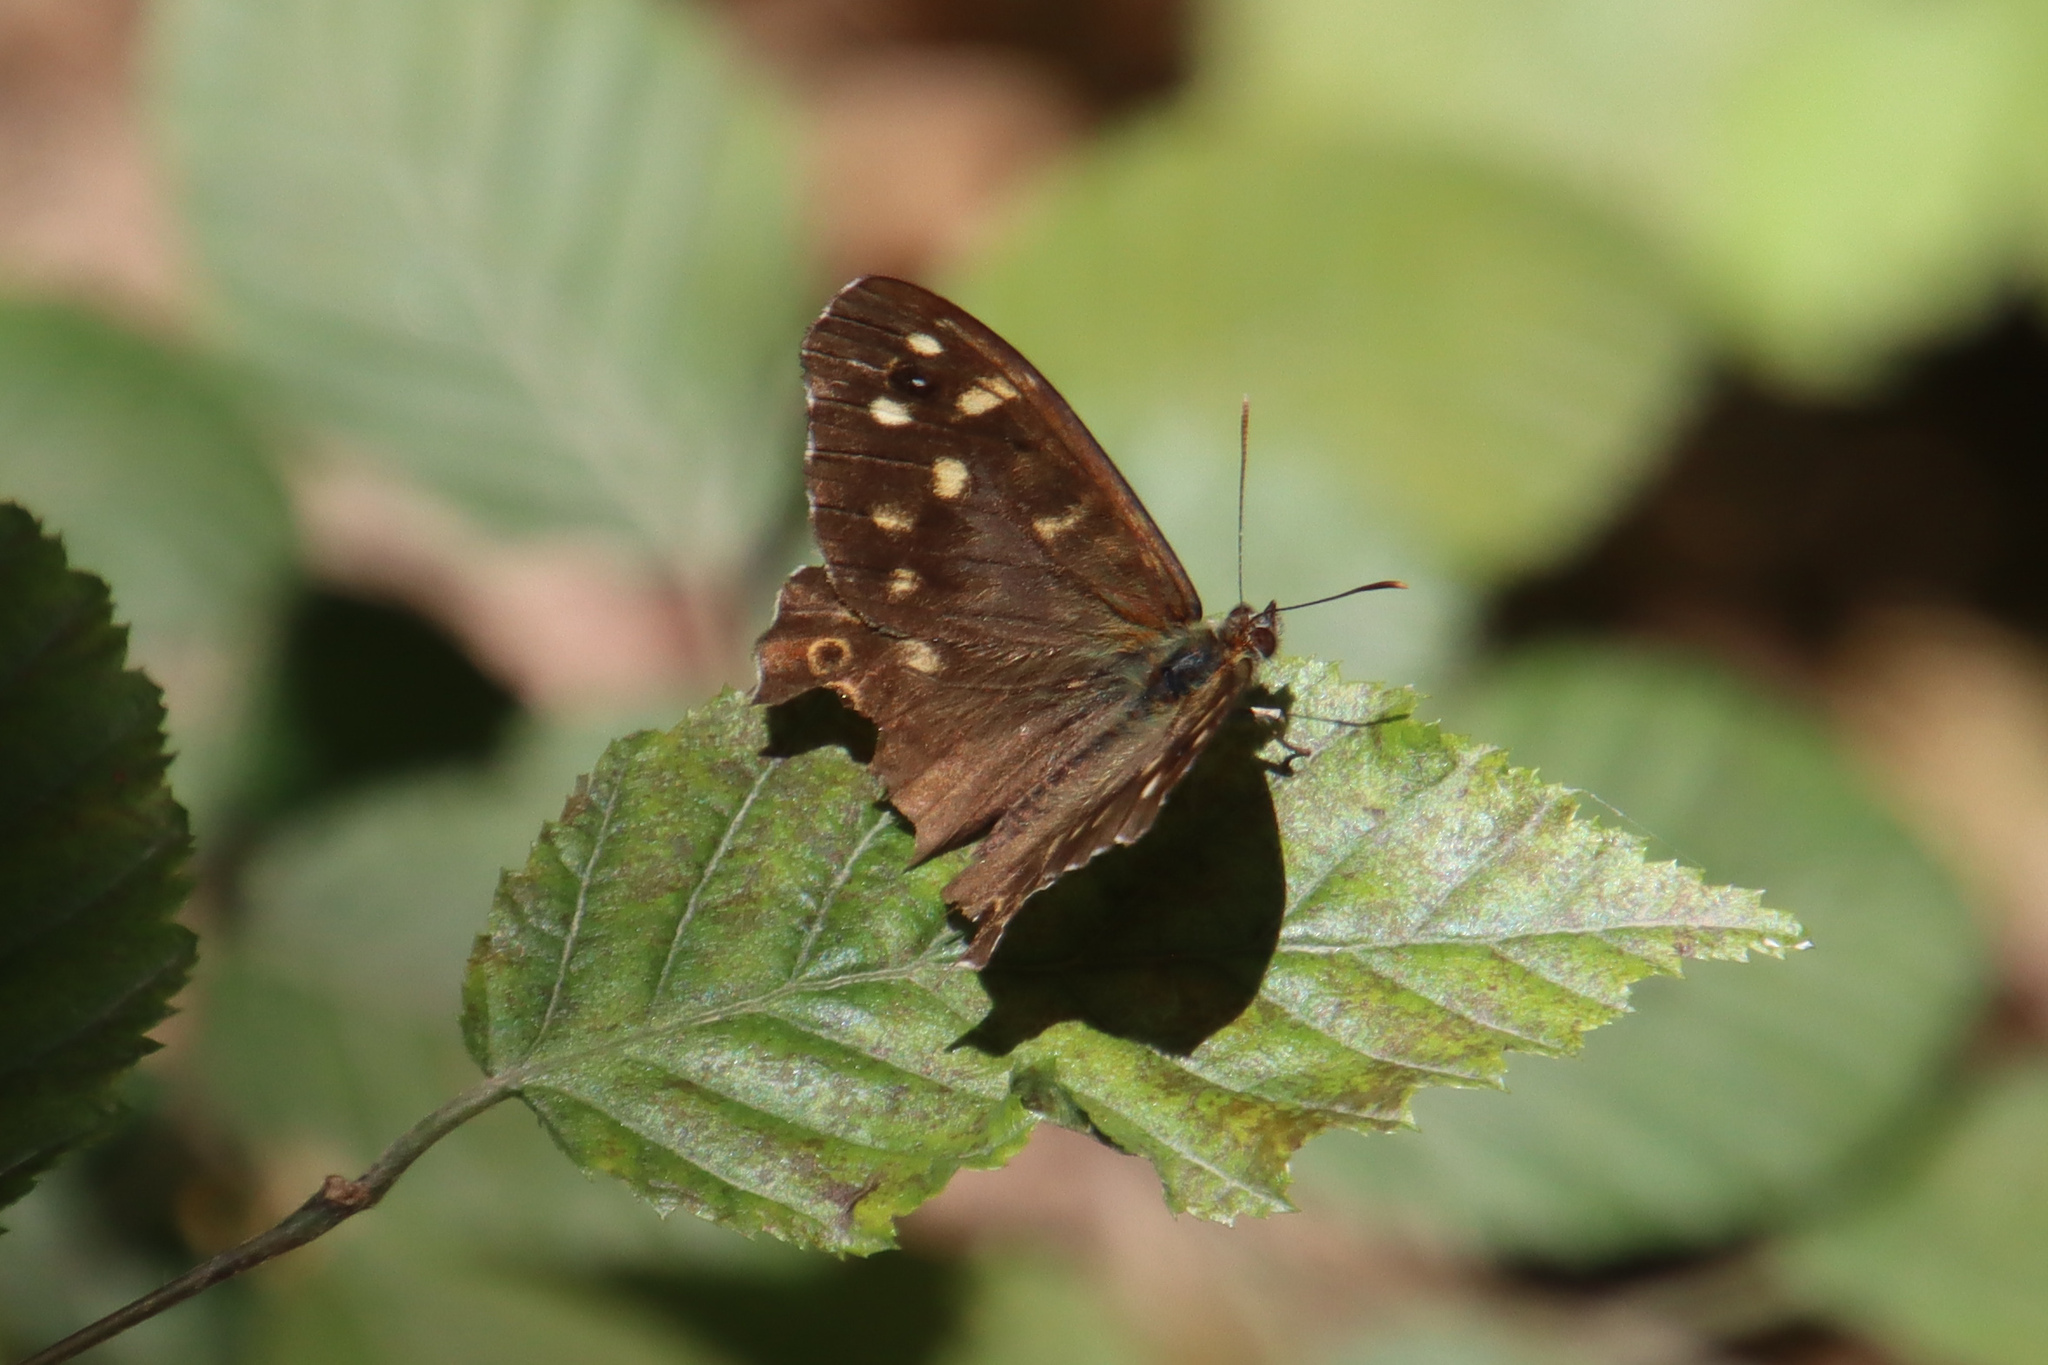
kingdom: Animalia
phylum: Arthropoda
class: Insecta
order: Lepidoptera
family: Nymphalidae
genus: Pararge
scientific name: Pararge aegeria
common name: Speckled wood
